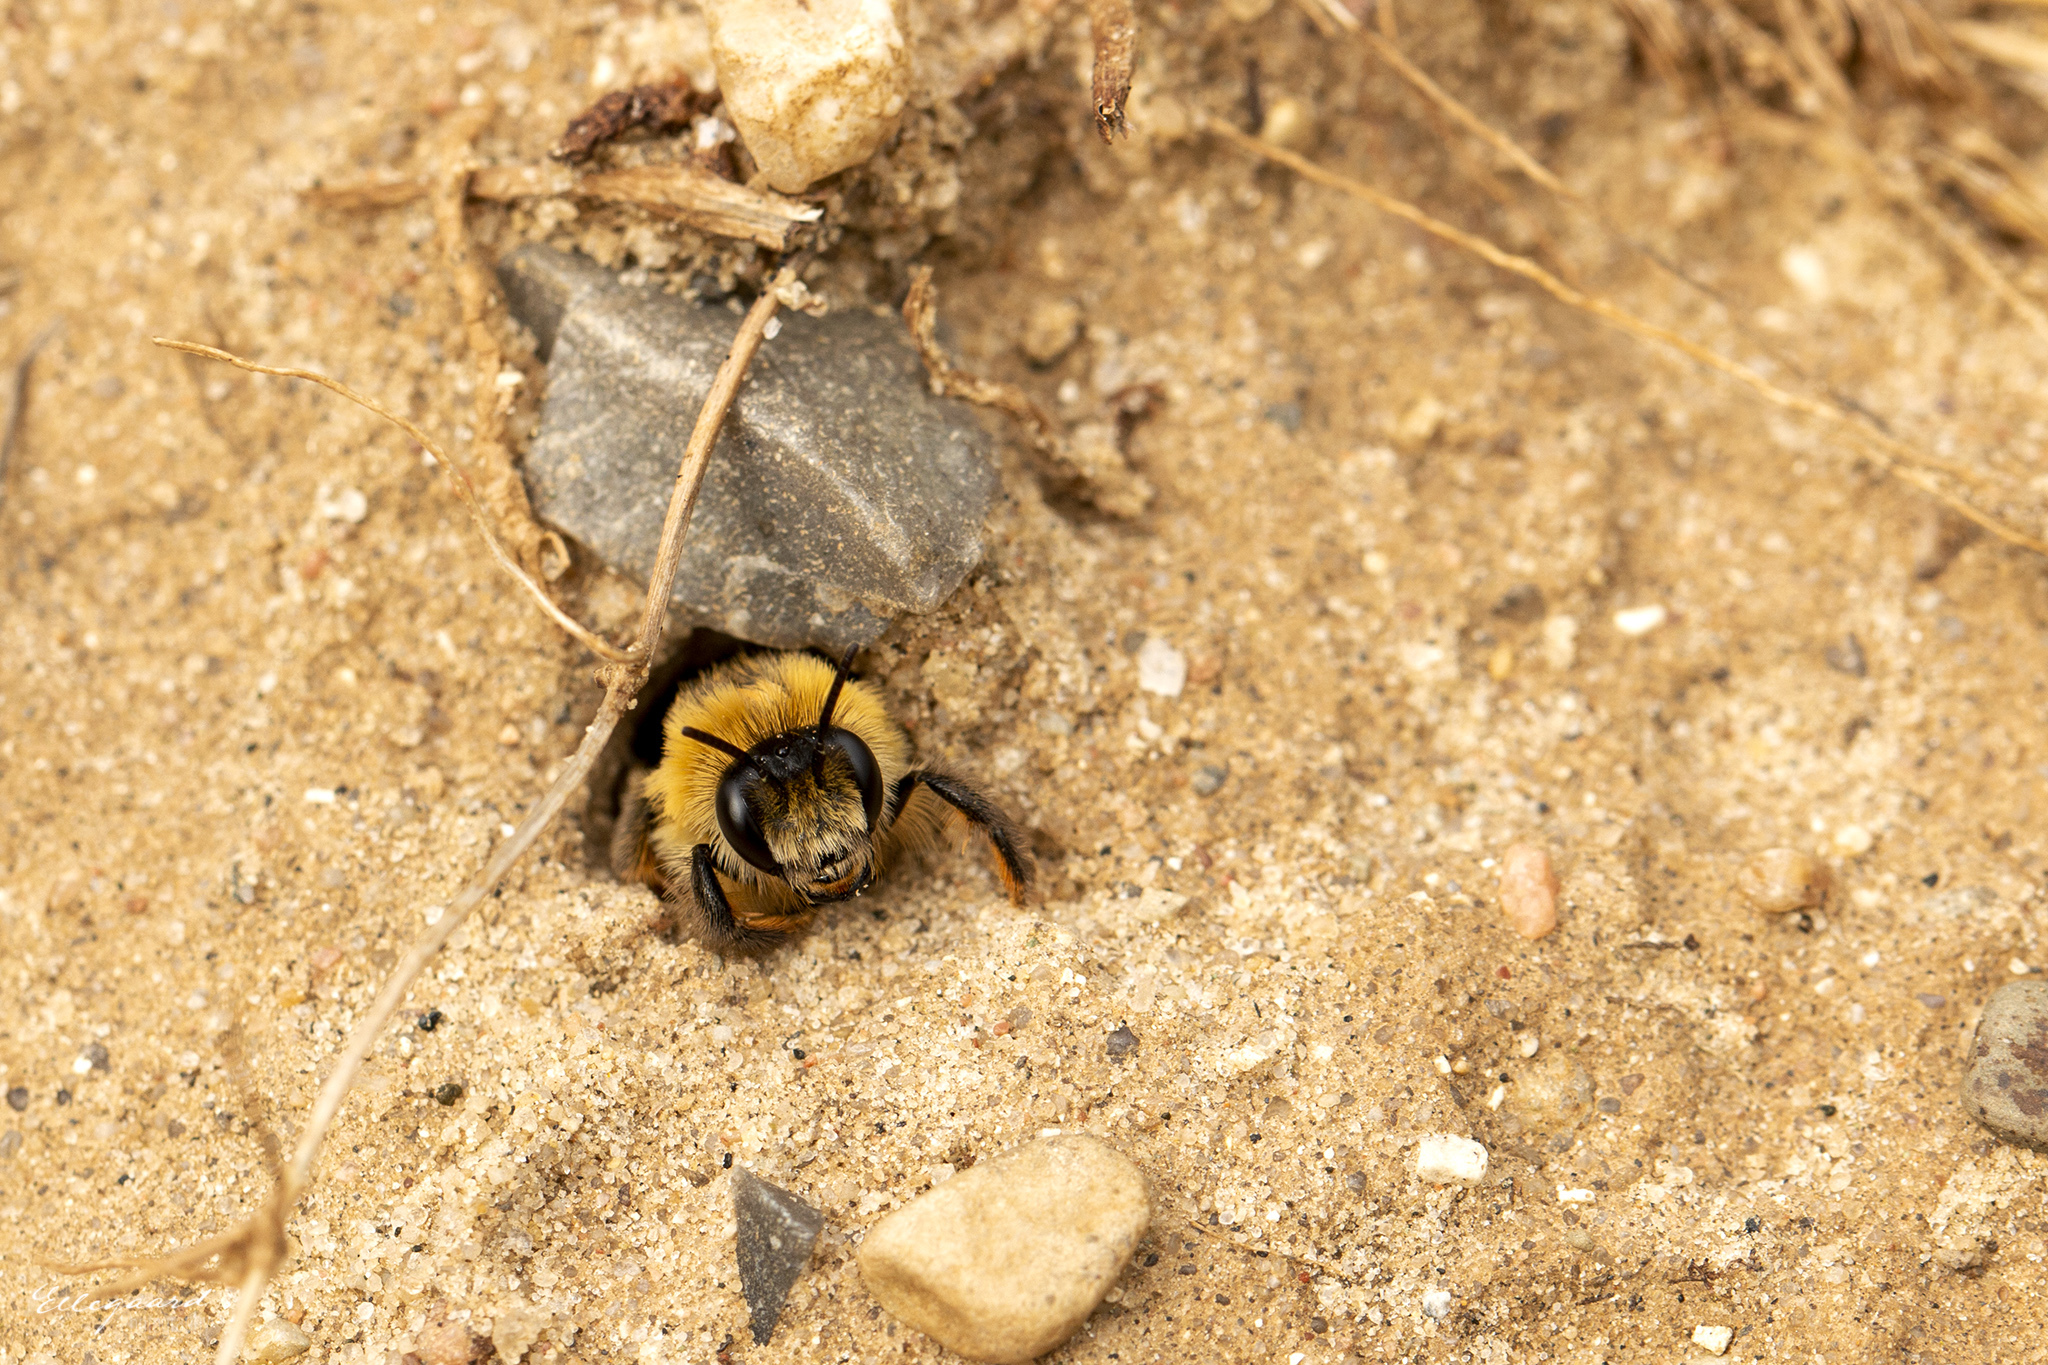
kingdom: Animalia
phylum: Arthropoda
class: Insecta
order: Hymenoptera
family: Melittidae
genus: Dasypoda
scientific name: Dasypoda hirtipes
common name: Pantaloon bee
